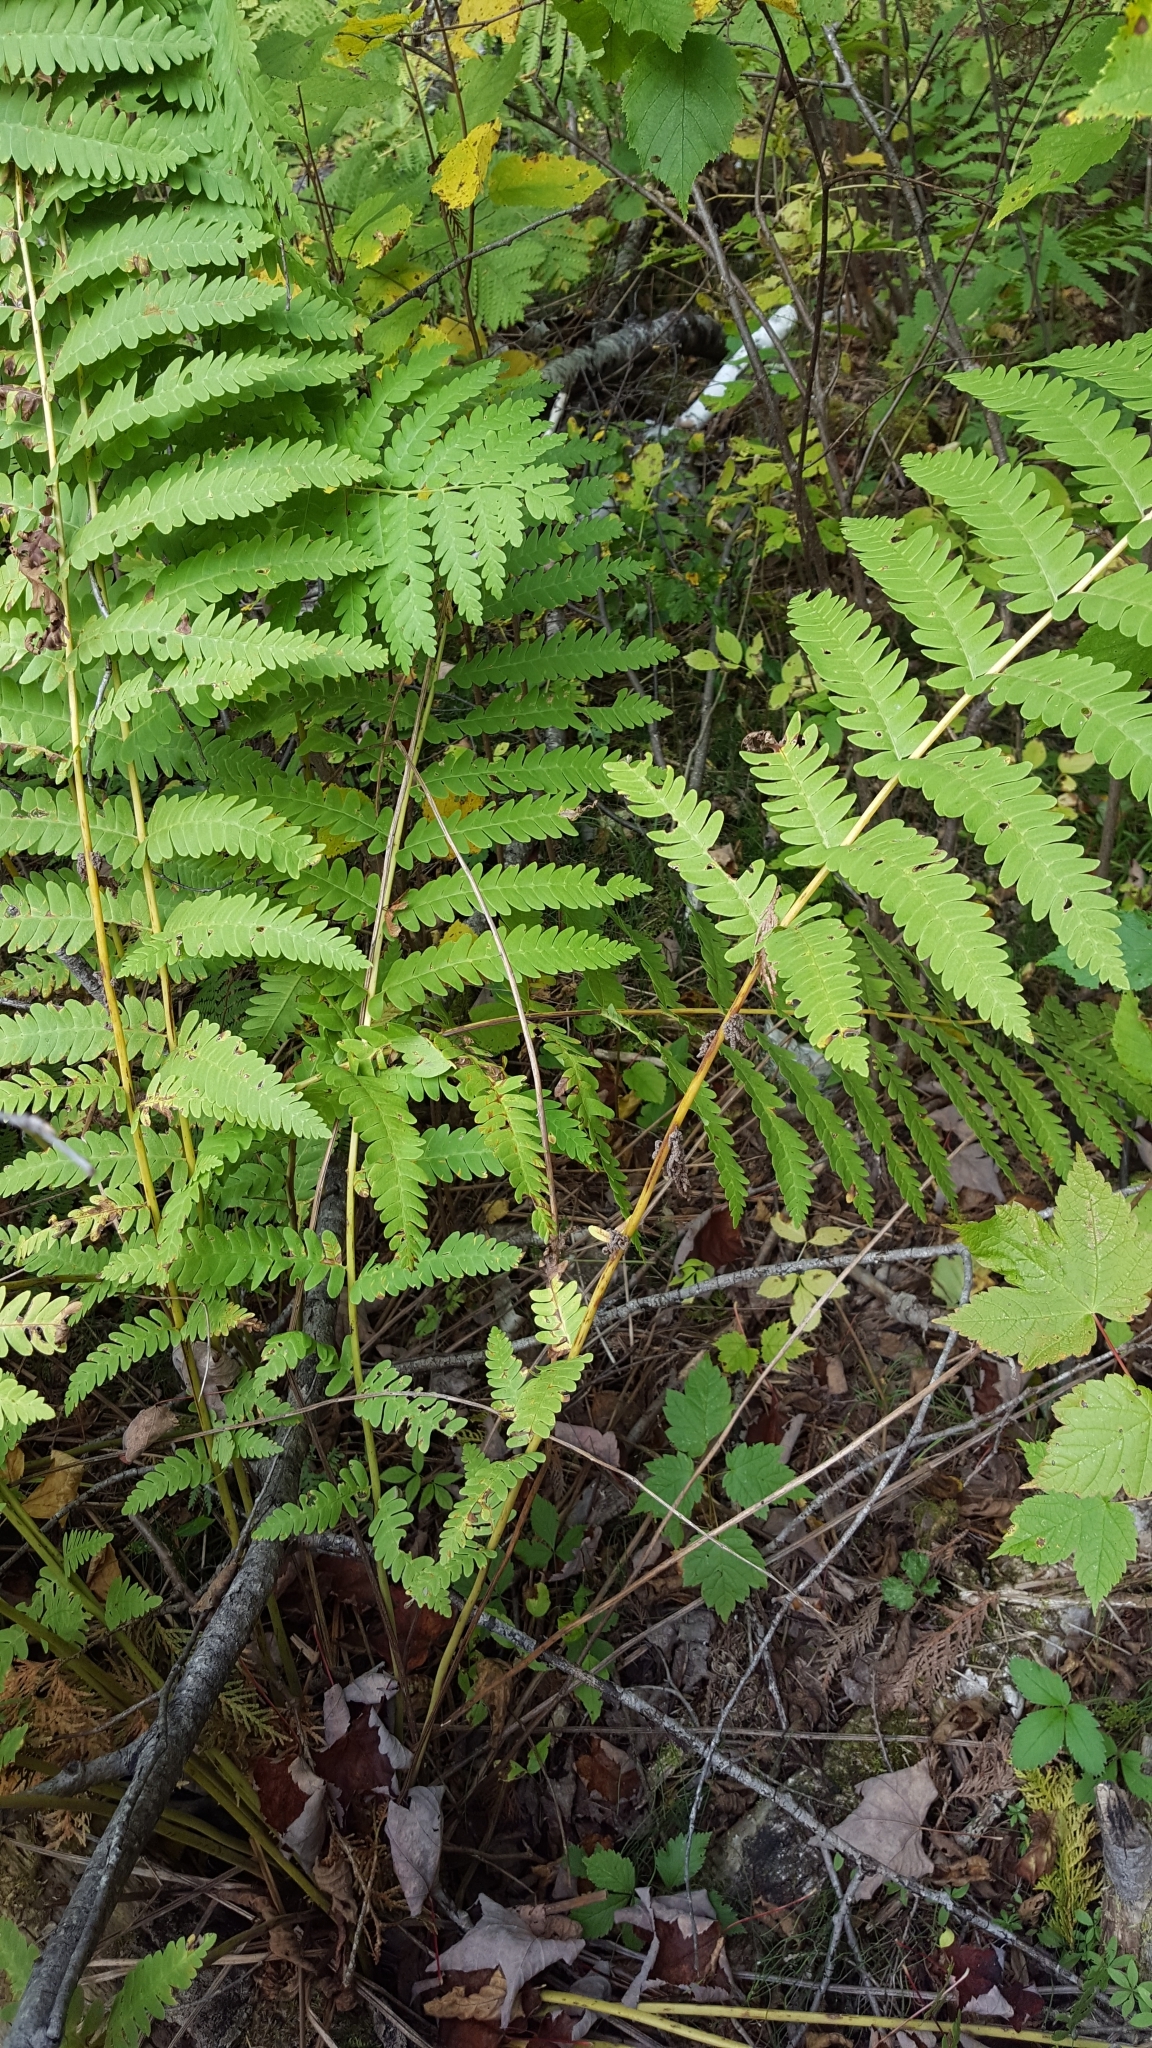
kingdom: Plantae
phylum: Tracheophyta
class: Polypodiopsida
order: Osmundales
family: Osmundaceae
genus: Claytosmunda
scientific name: Claytosmunda claytoniana
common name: Clayton's fern
